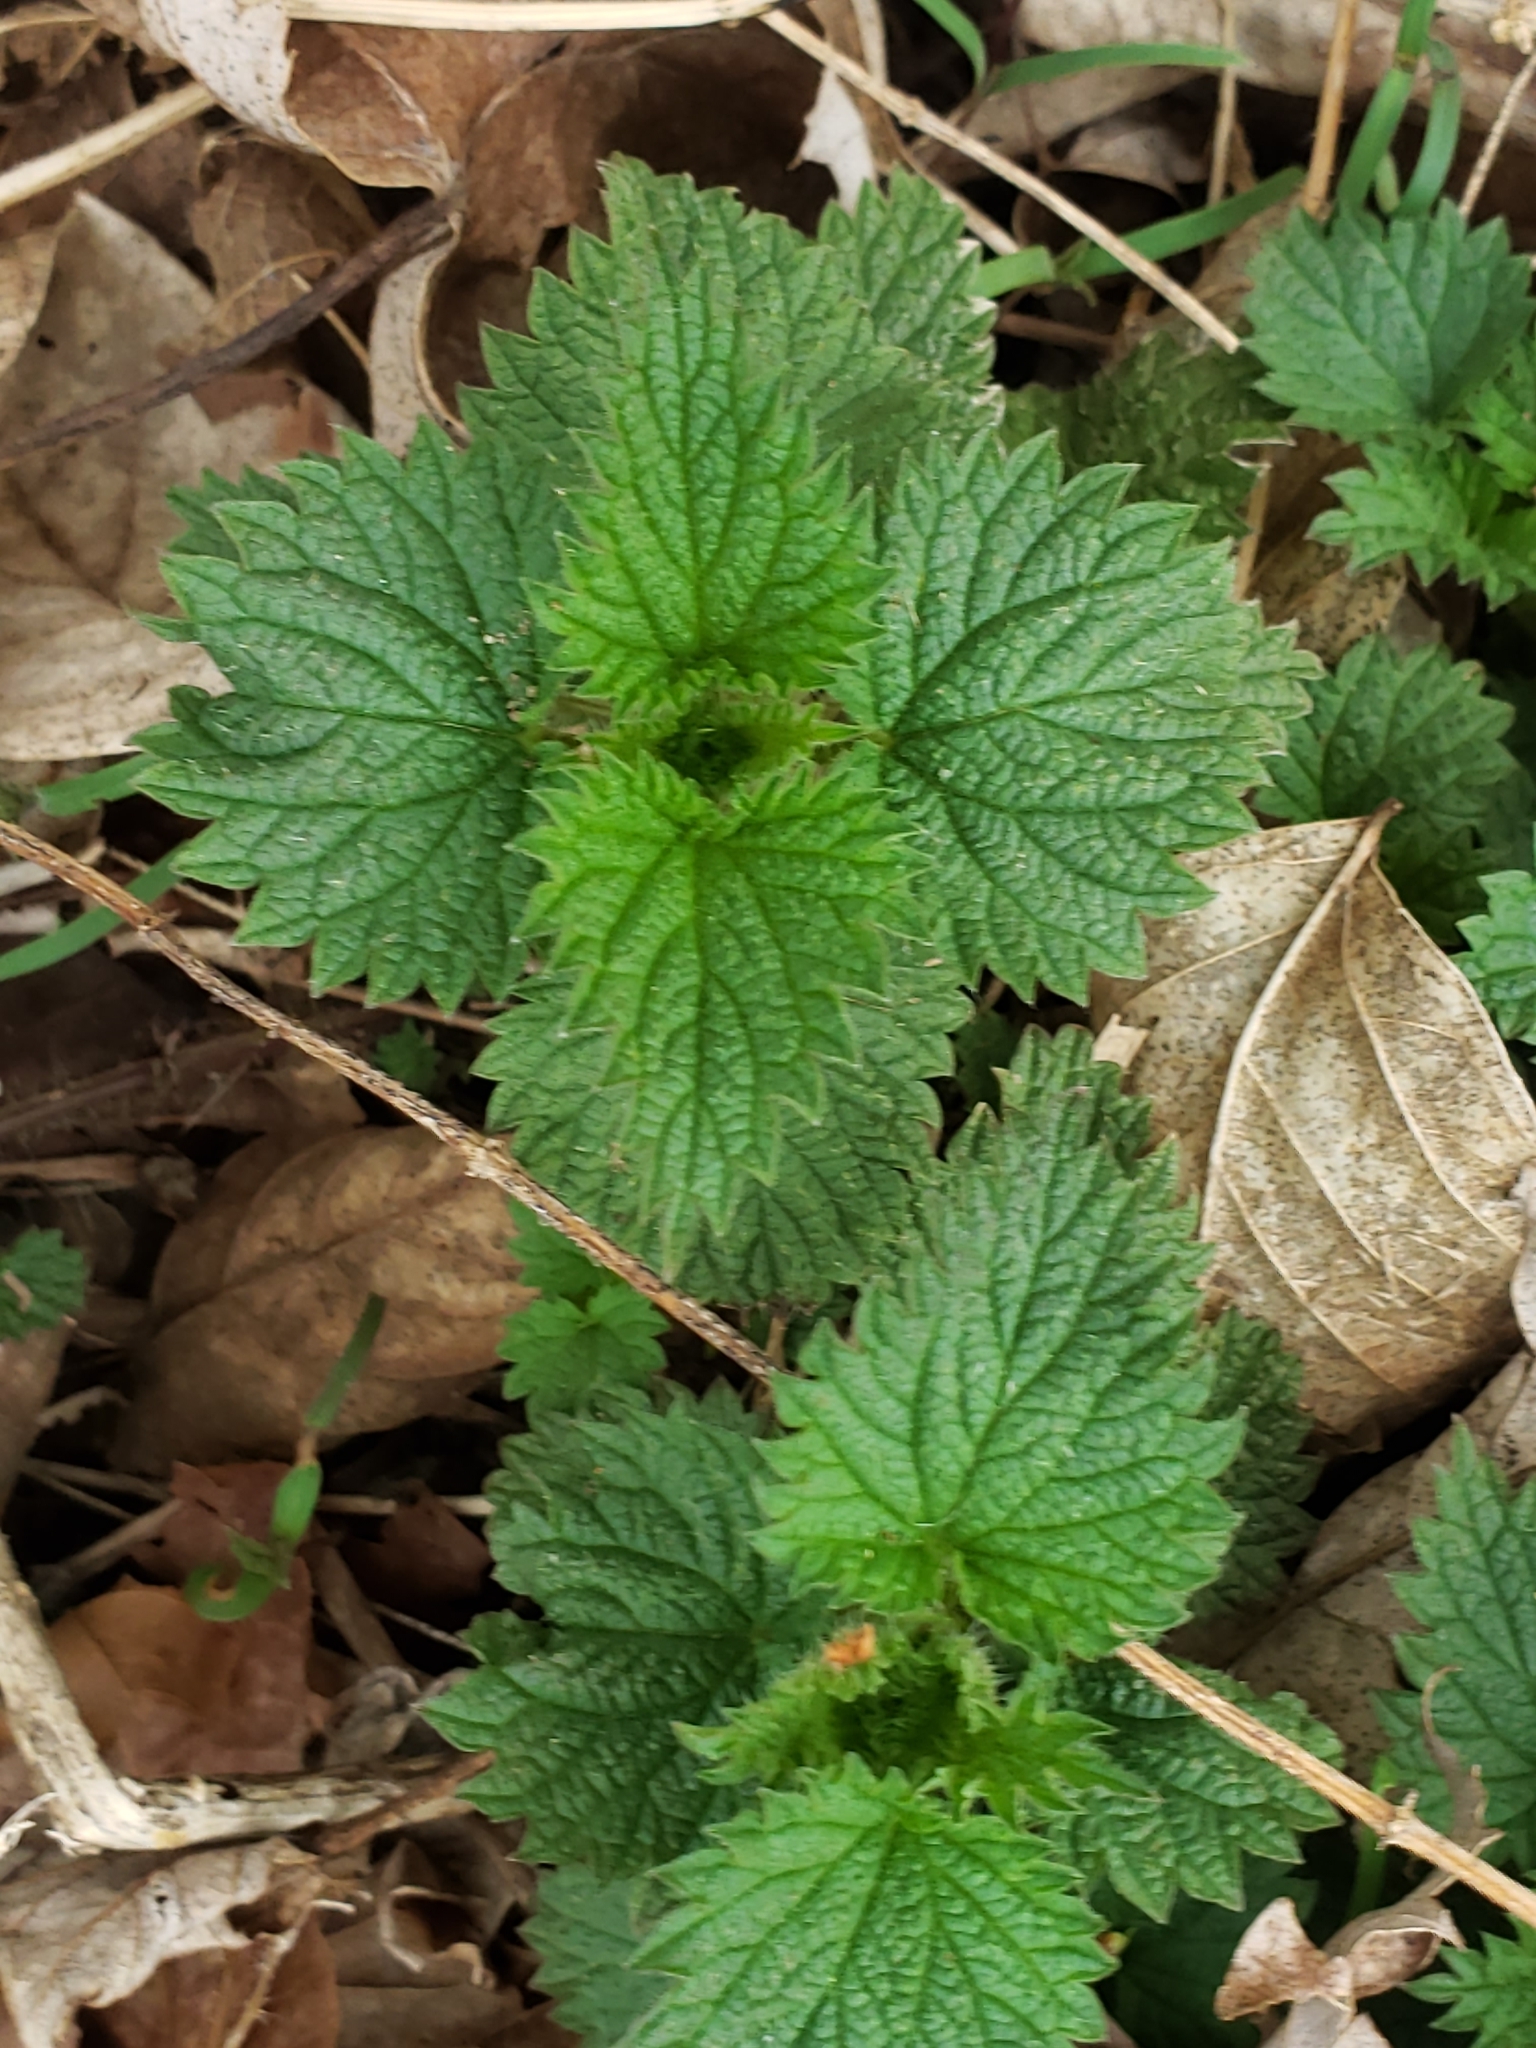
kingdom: Plantae
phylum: Tracheophyta
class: Magnoliopsida
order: Rosales
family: Urticaceae
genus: Urtica
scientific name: Urtica dioica
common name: Common nettle
